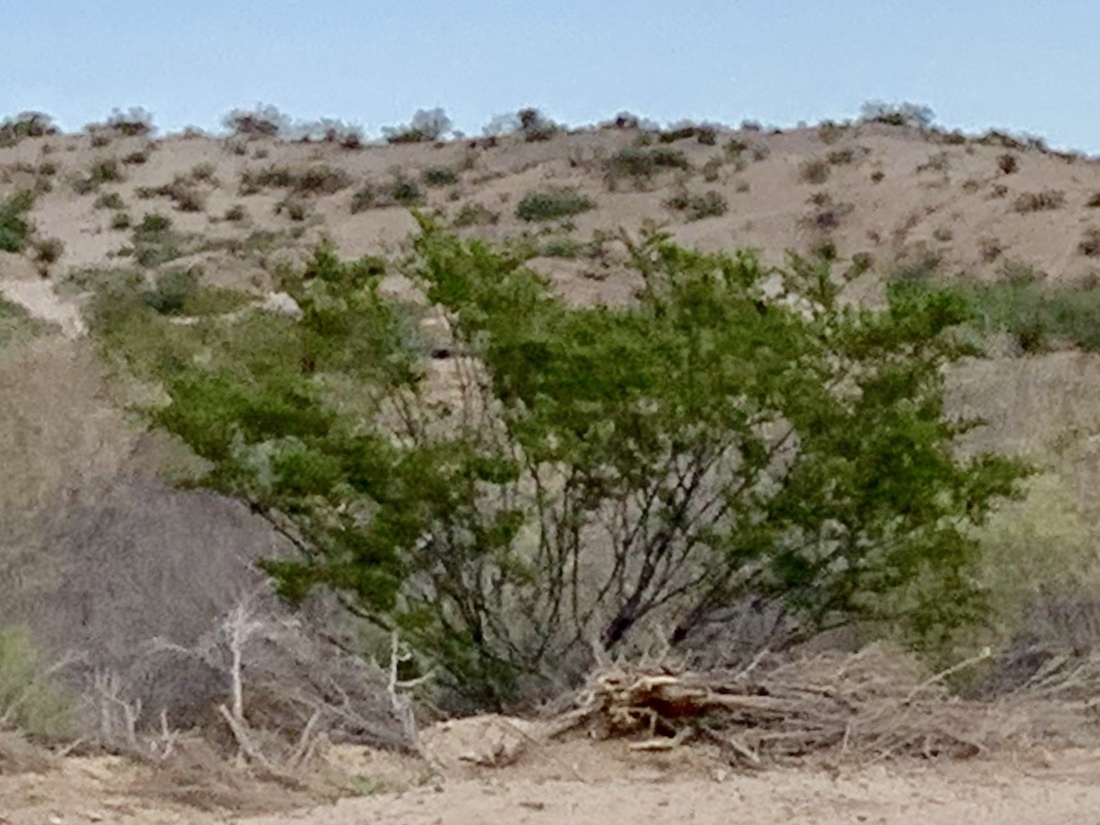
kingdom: Plantae
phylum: Tracheophyta
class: Magnoliopsida
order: Zygophyllales
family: Zygophyllaceae
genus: Larrea
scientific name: Larrea tridentata
